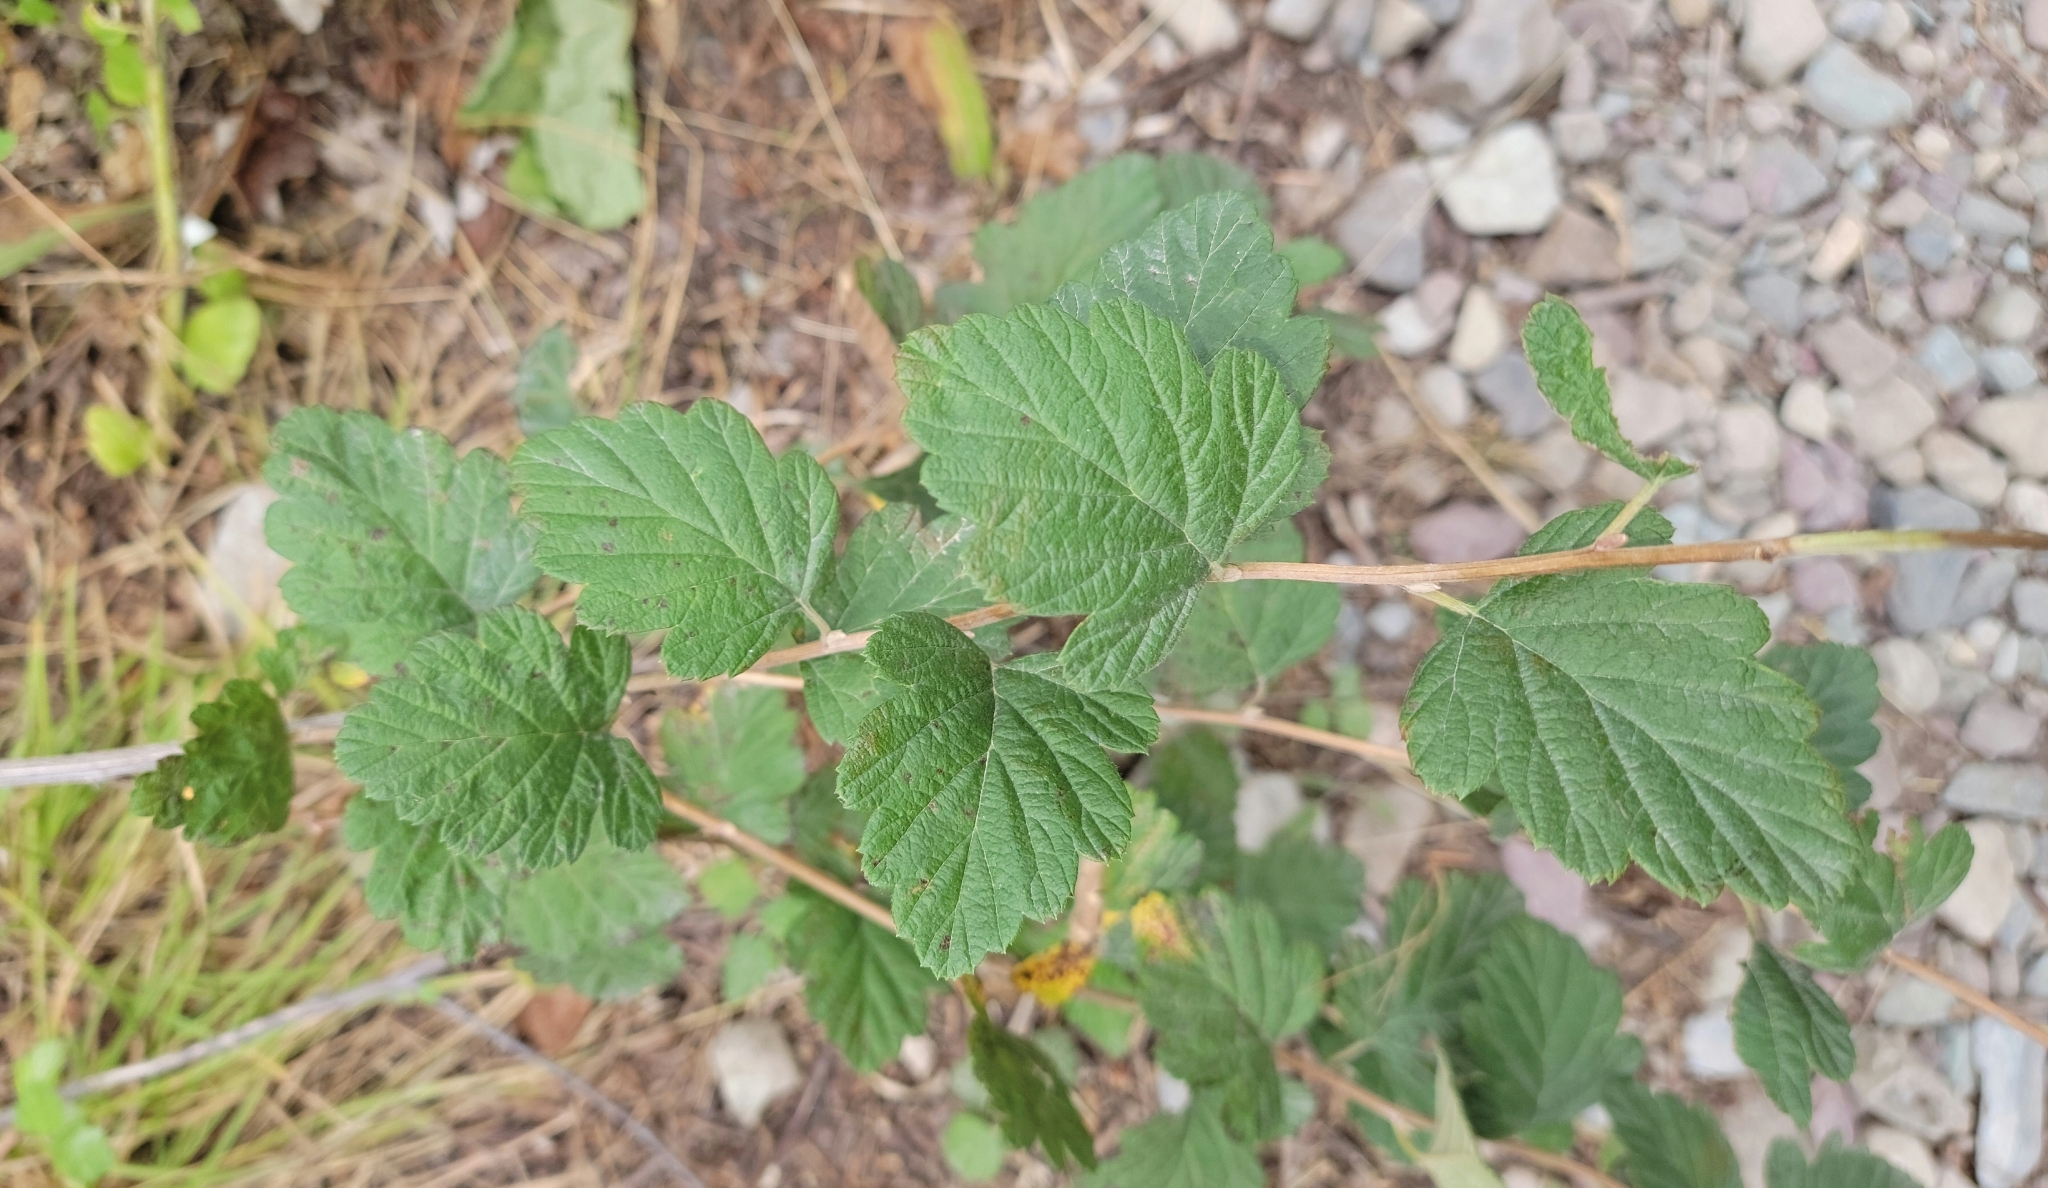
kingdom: Plantae
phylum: Tracheophyta
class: Magnoliopsida
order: Rosales
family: Rosaceae
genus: Holodiscus
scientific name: Holodiscus discolor
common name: Oceanspray
